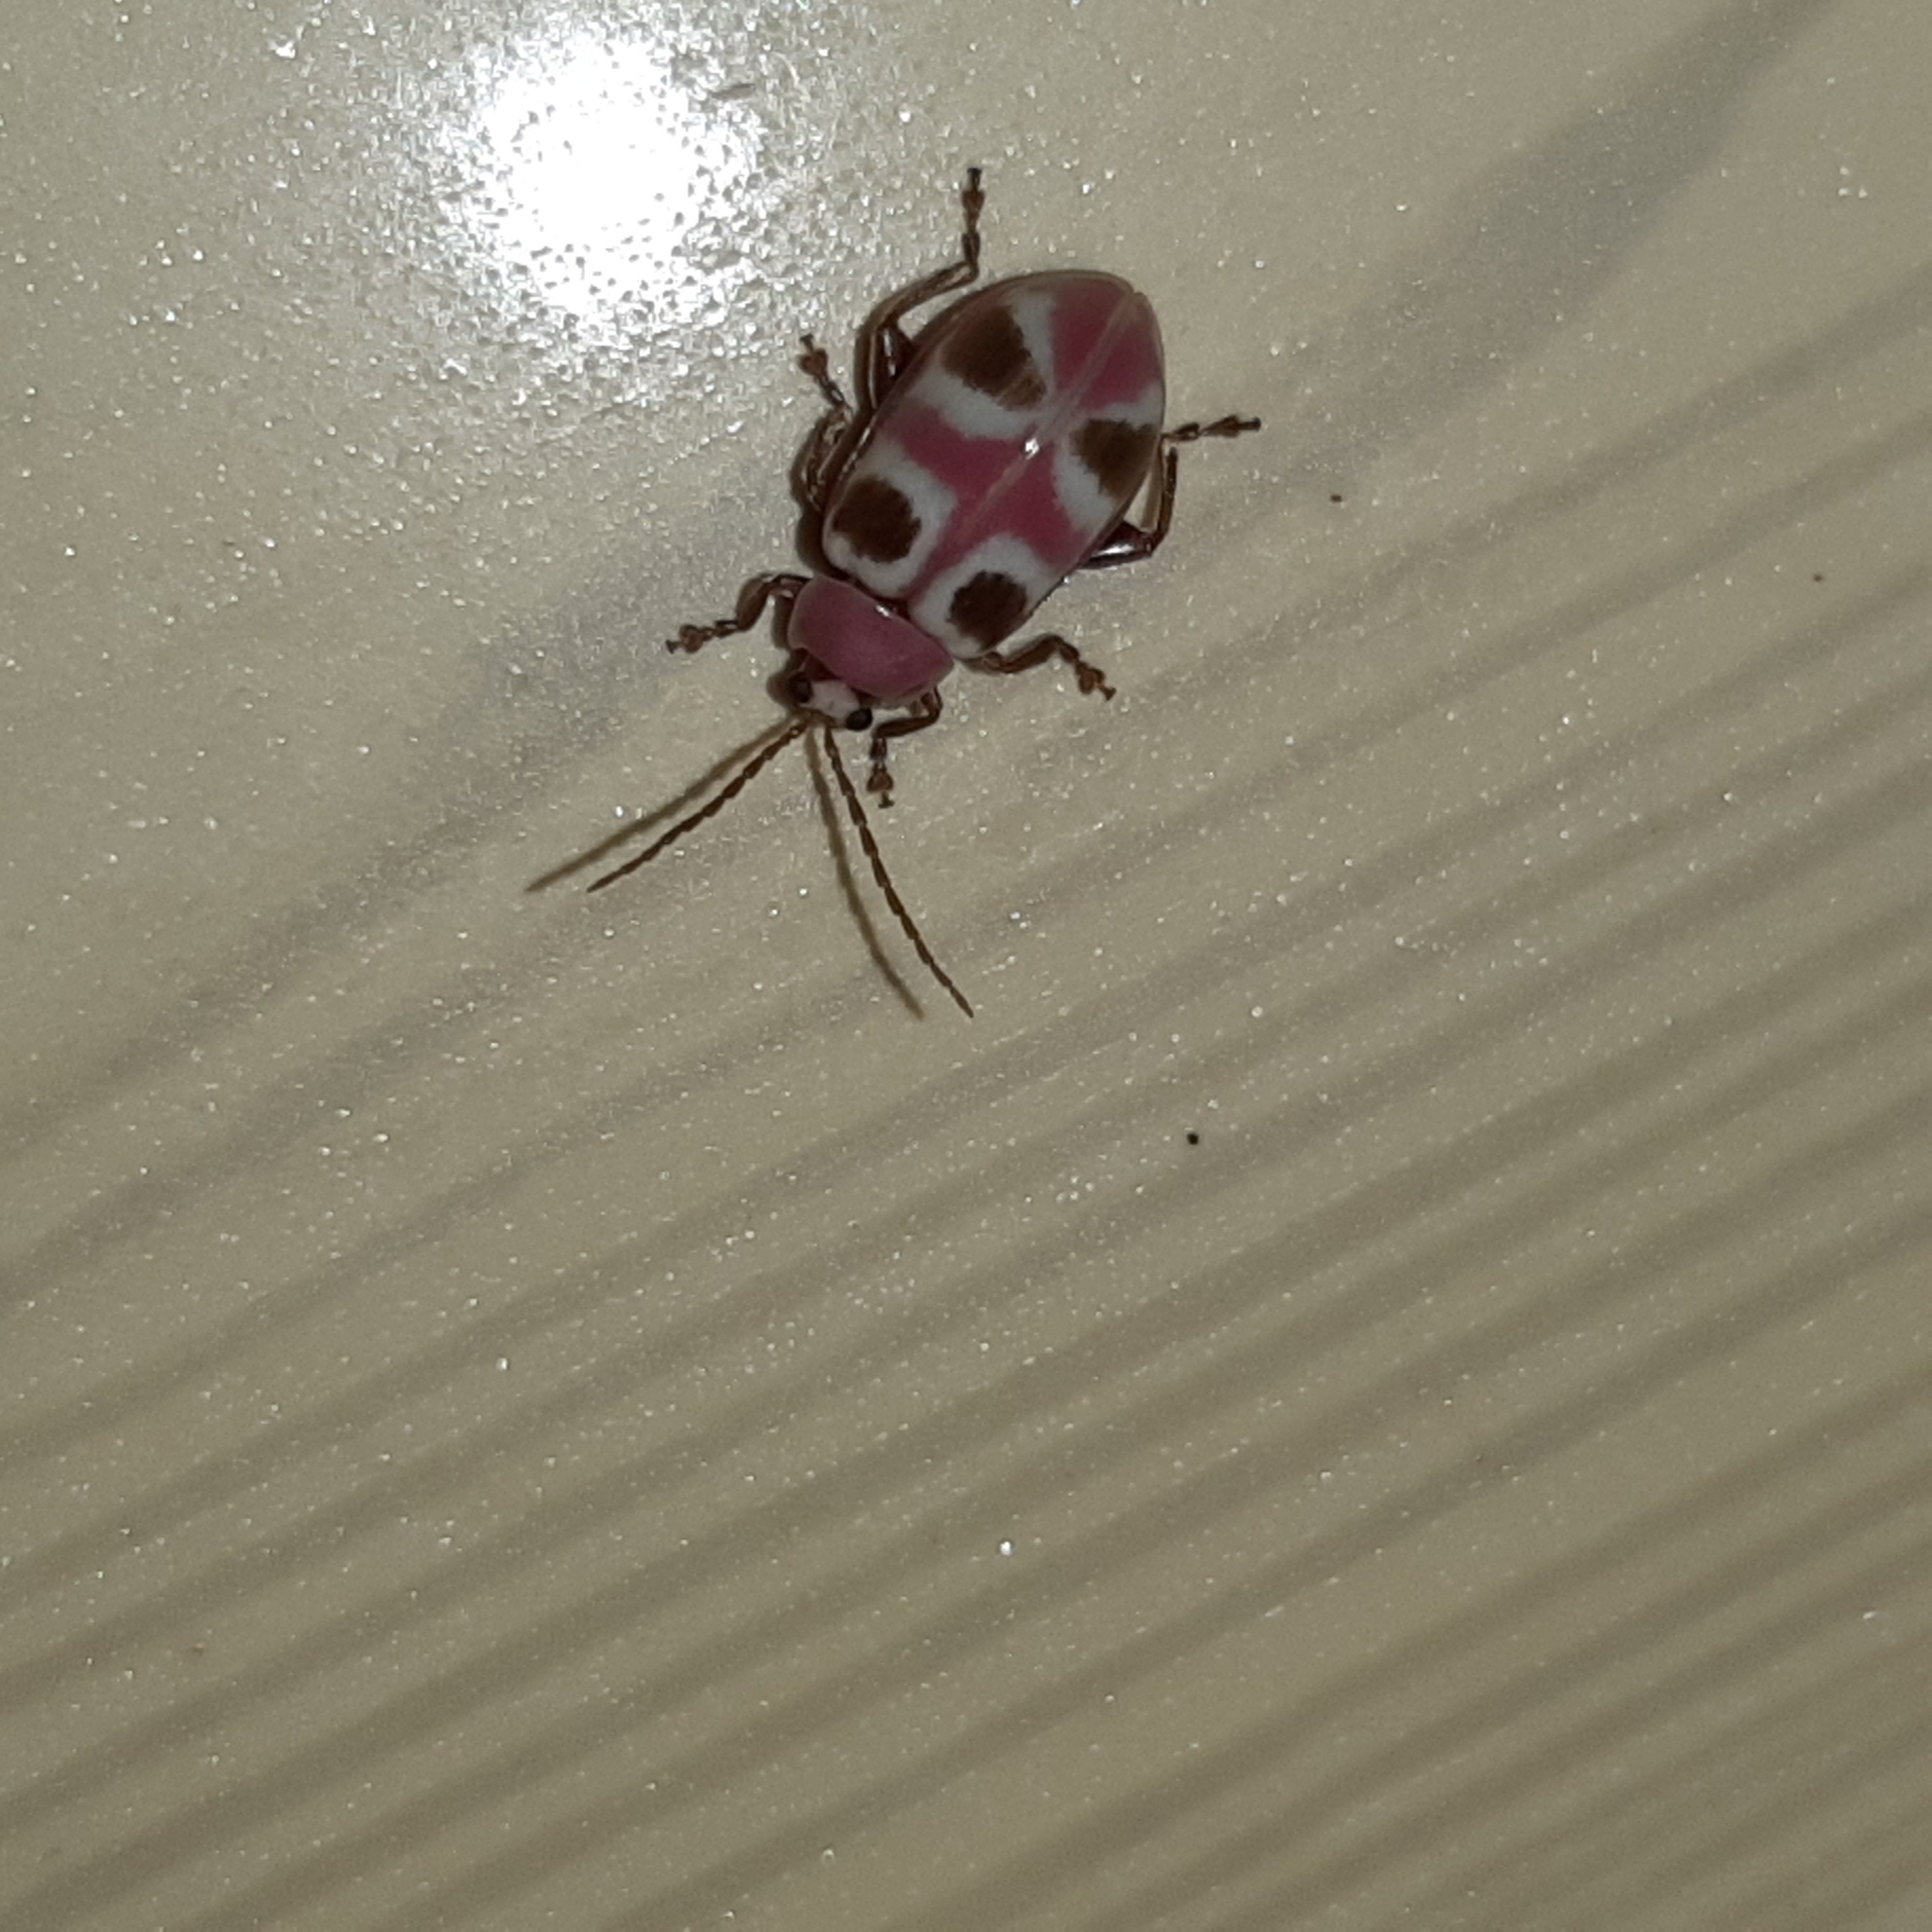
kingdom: Animalia
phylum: Arthropoda
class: Insecta
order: Coleoptera
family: Chrysomelidae
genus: Omophoita
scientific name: Omophoita
